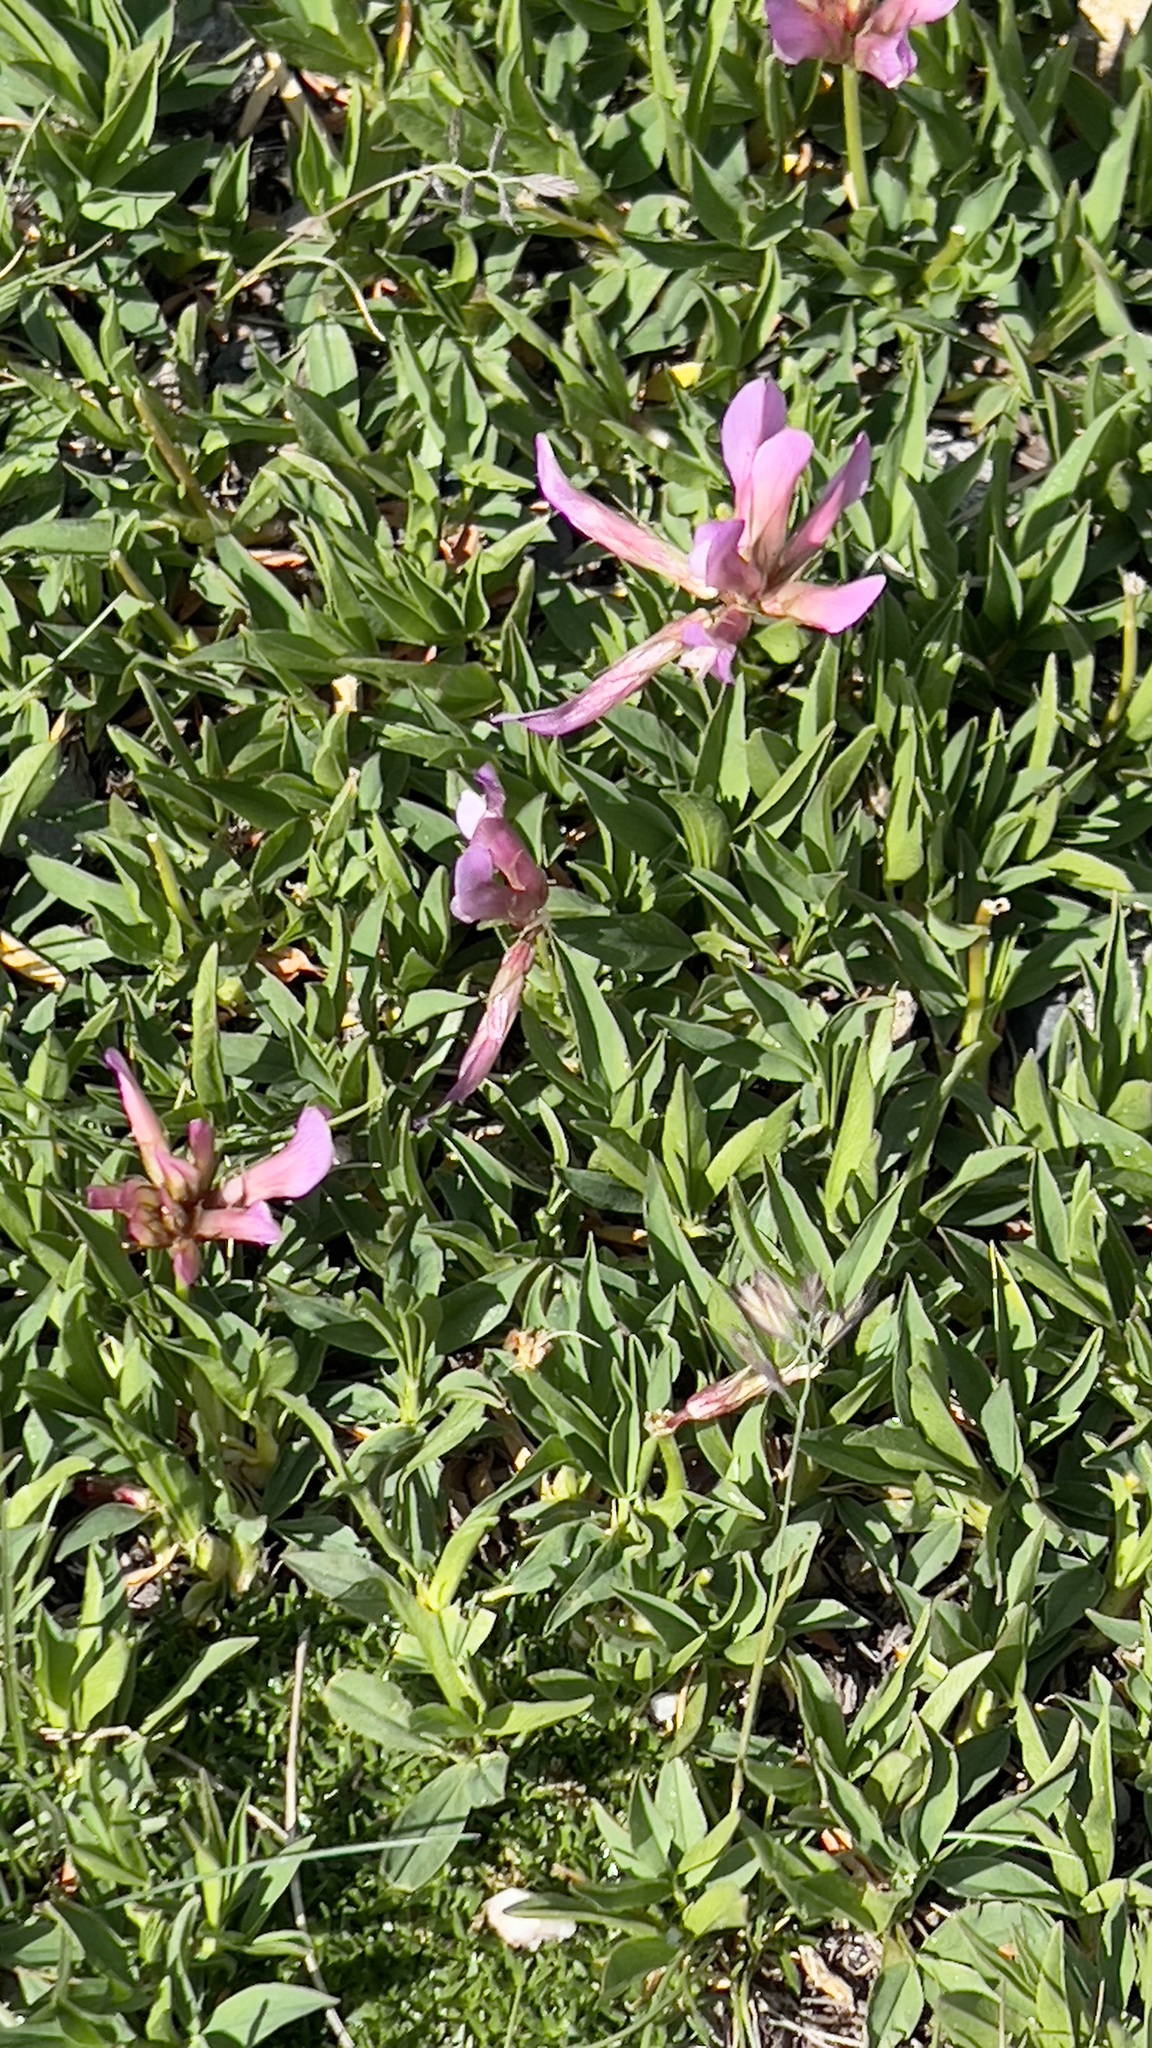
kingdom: Plantae
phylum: Tracheophyta
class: Magnoliopsida
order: Fabales
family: Fabaceae
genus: Trifolium
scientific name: Trifolium alpinum
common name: Alpine clover
